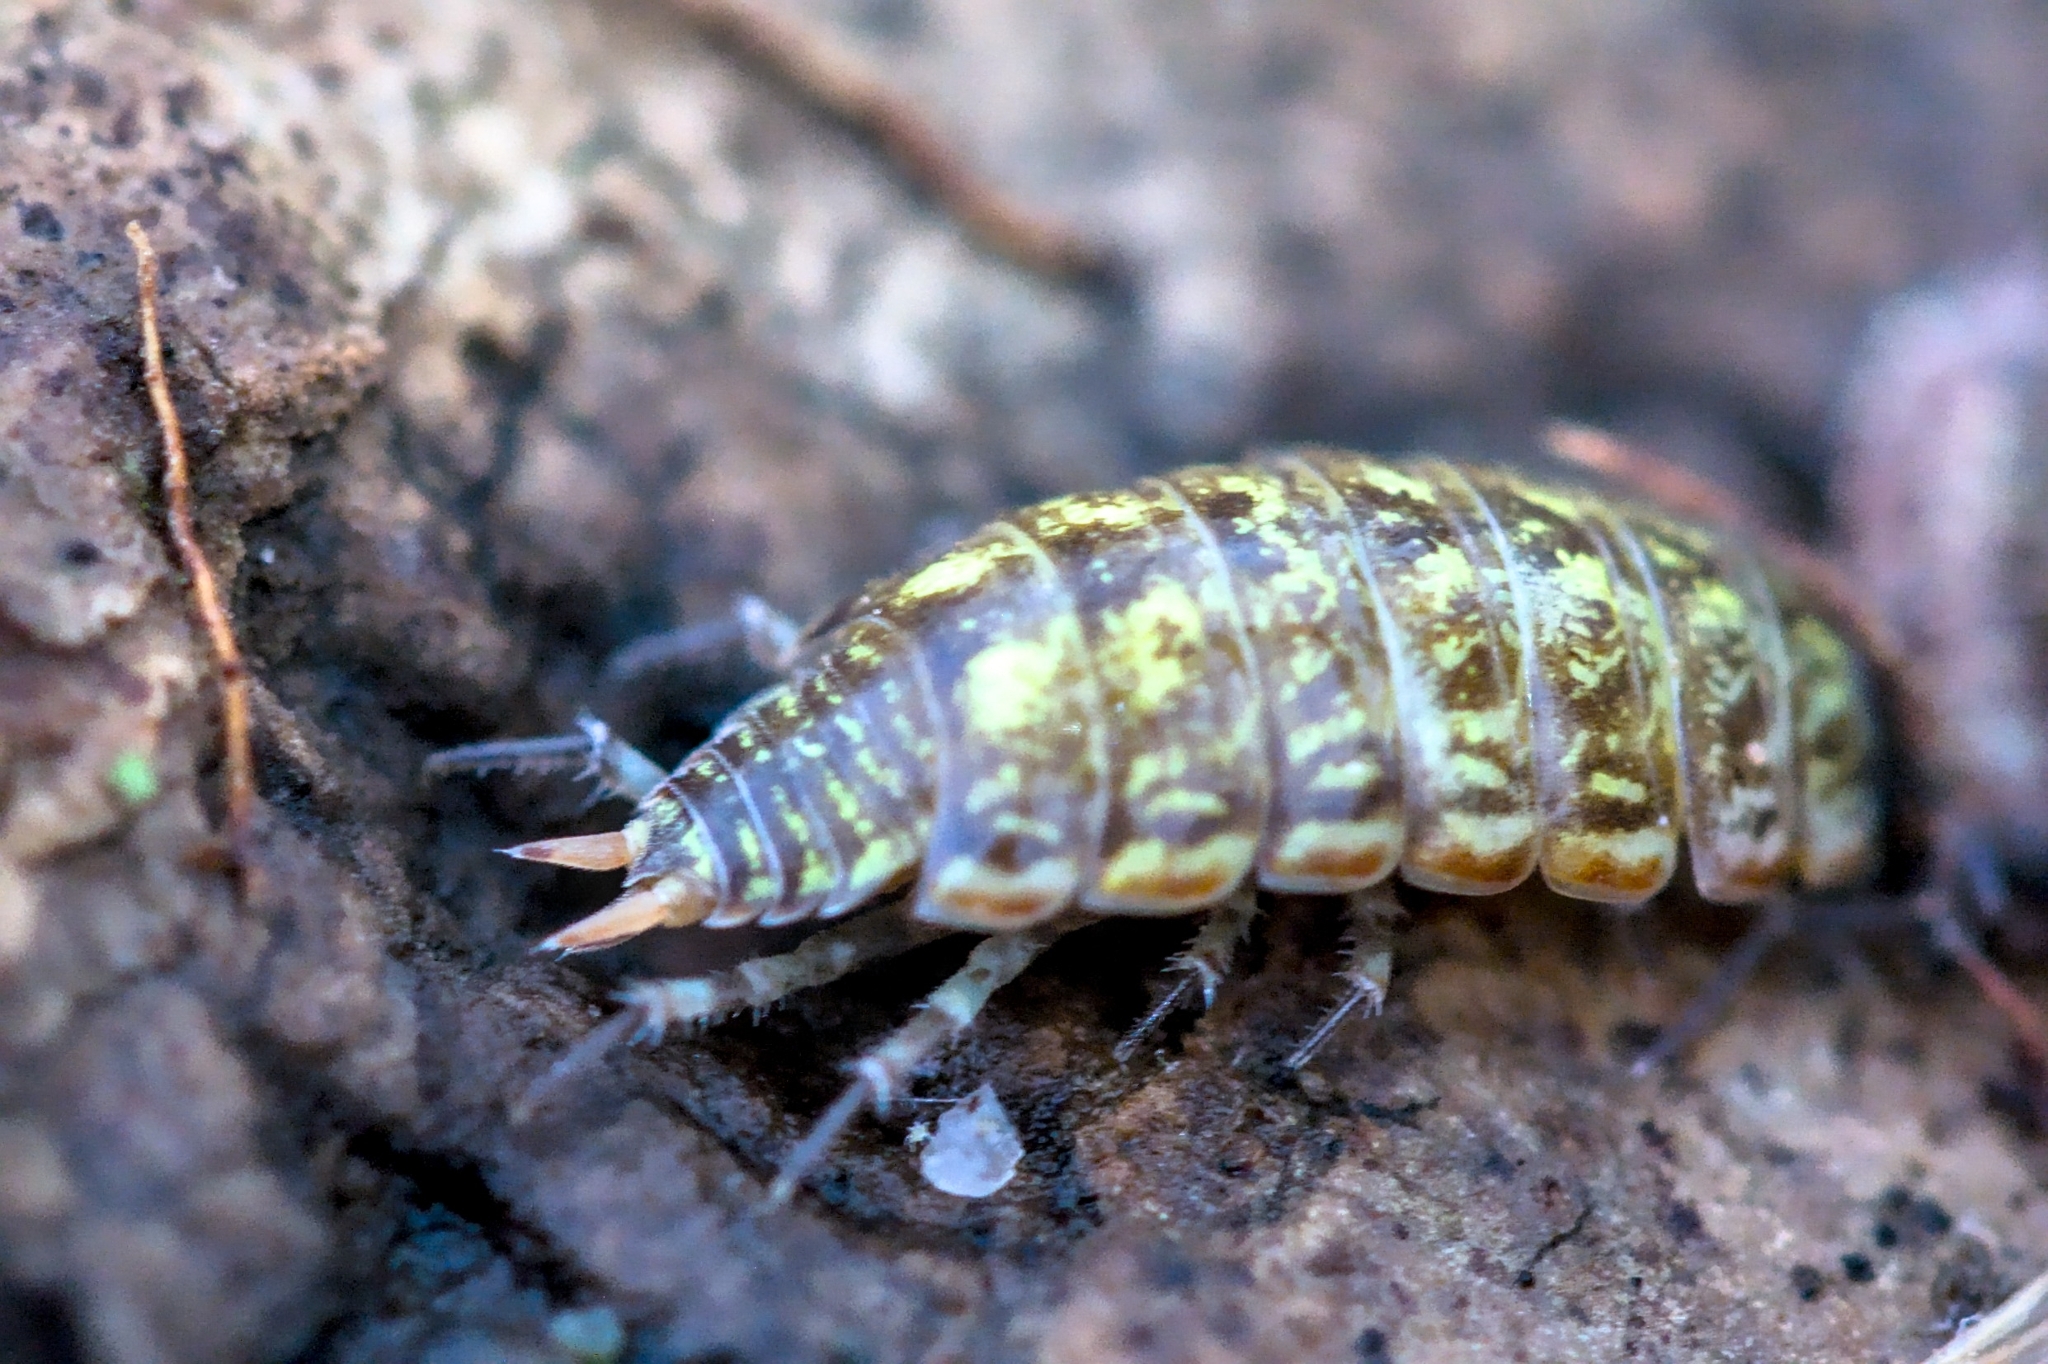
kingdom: Animalia
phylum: Arthropoda
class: Malacostraca
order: Isopoda
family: Philosciidae
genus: Philoscia
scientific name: Philoscia muscorum
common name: Common striped woodlouse
